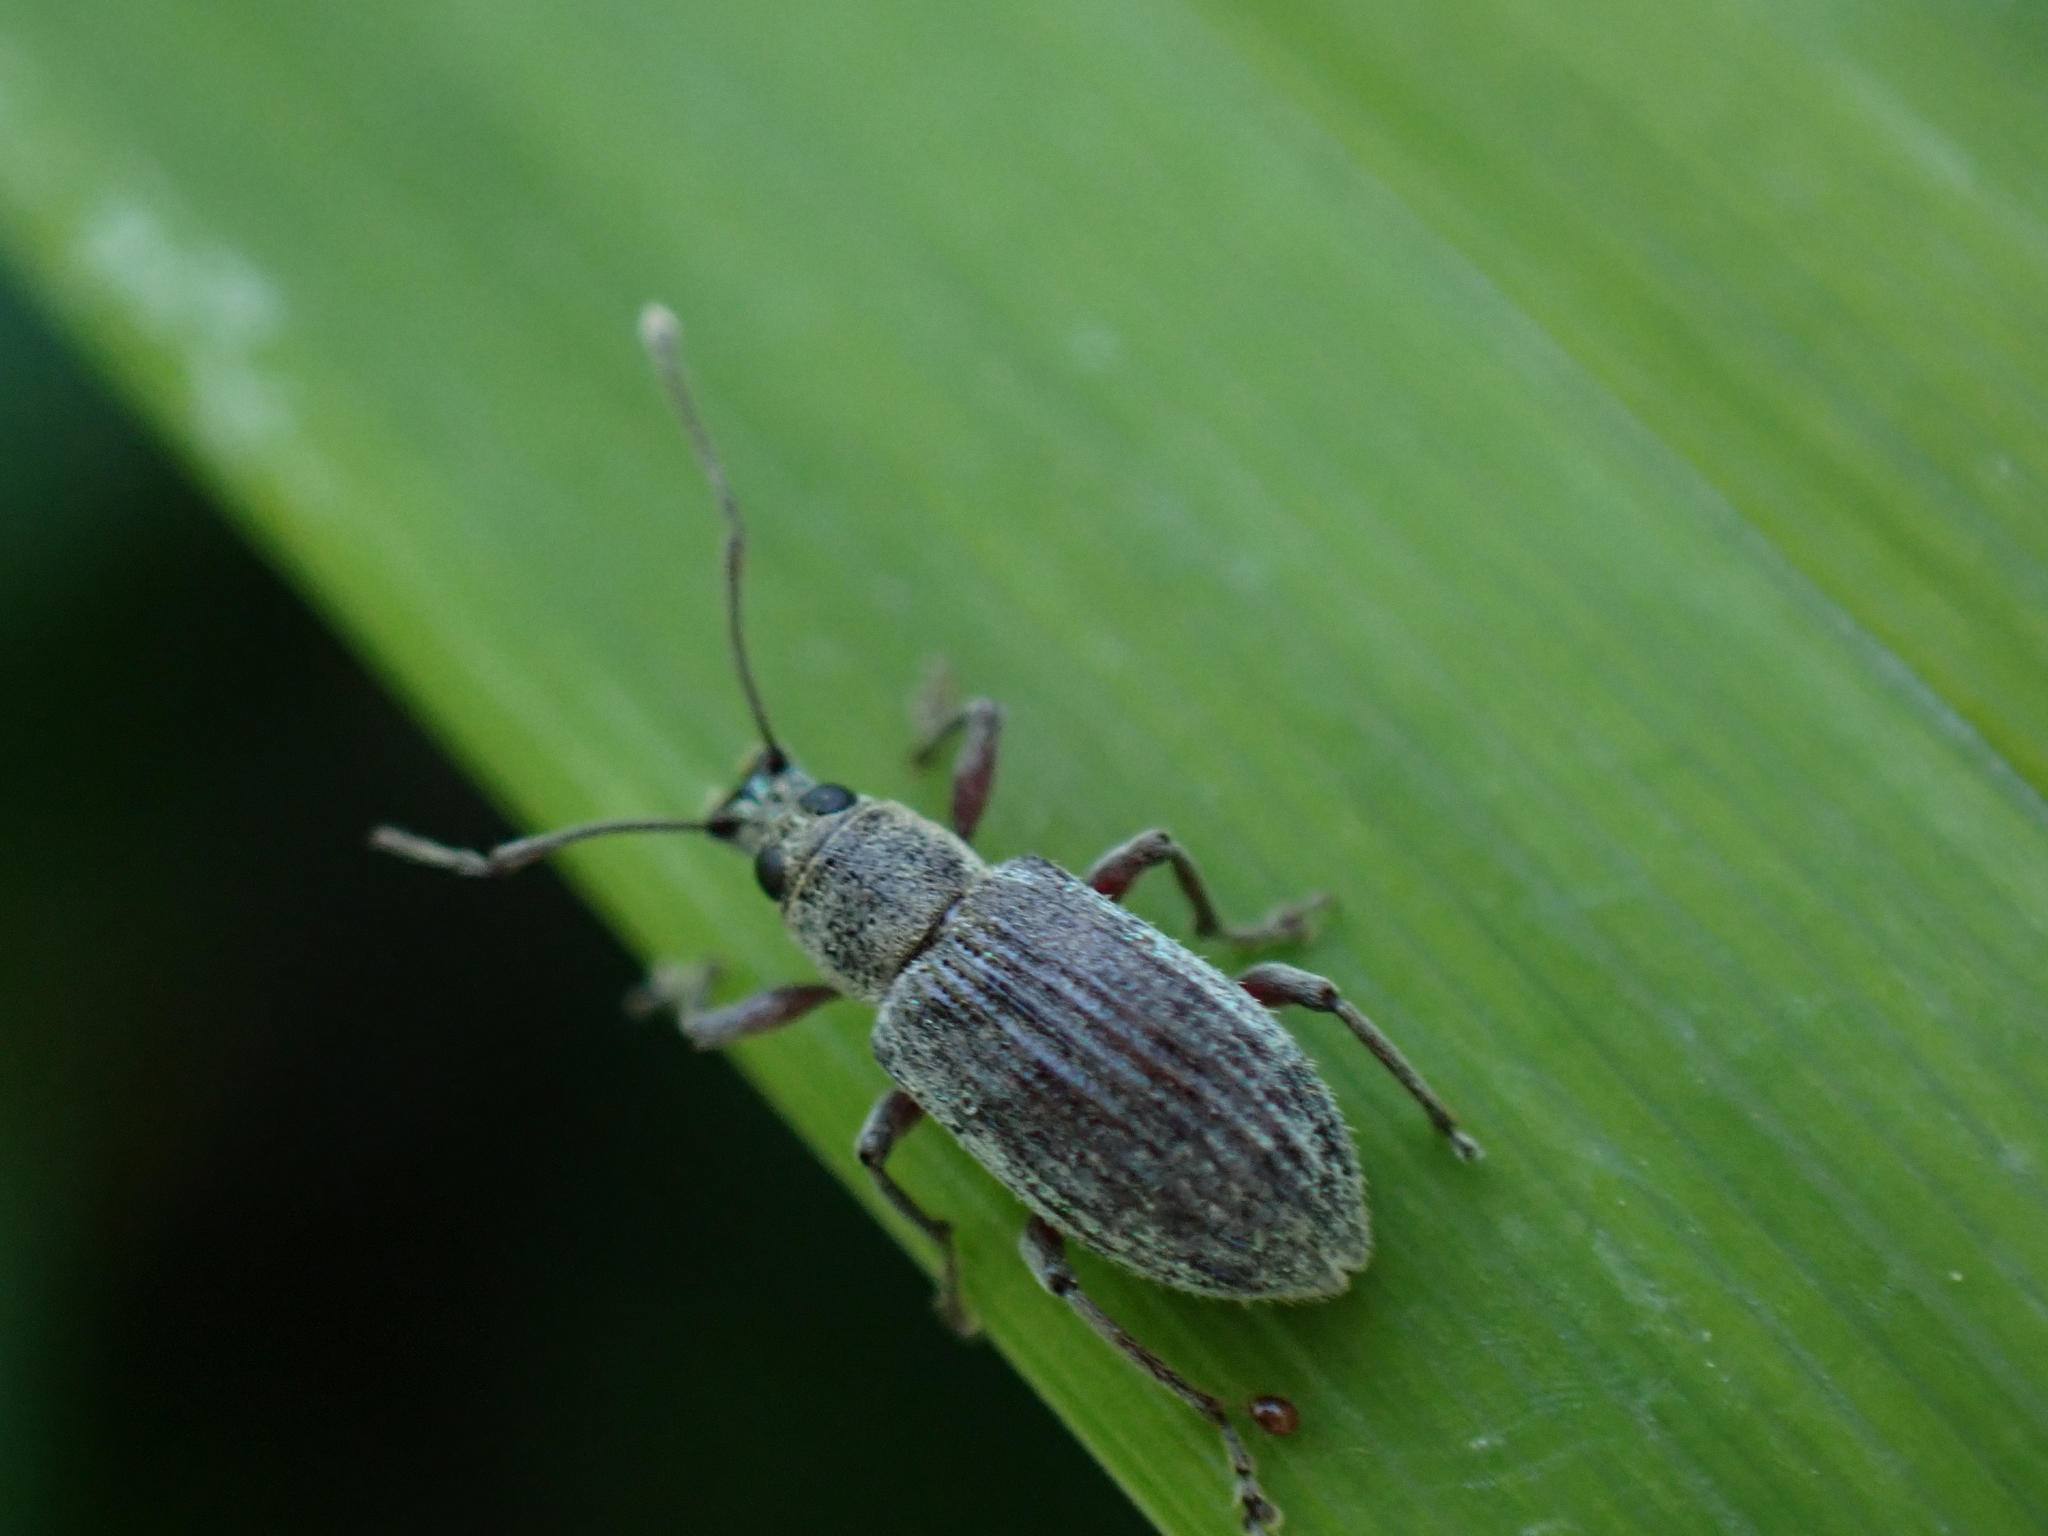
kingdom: Animalia
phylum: Arthropoda
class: Insecta
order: Coleoptera
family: Curculionidae
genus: Cyrtepistomus
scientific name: Cyrtepistomus castaneus
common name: Weevil
